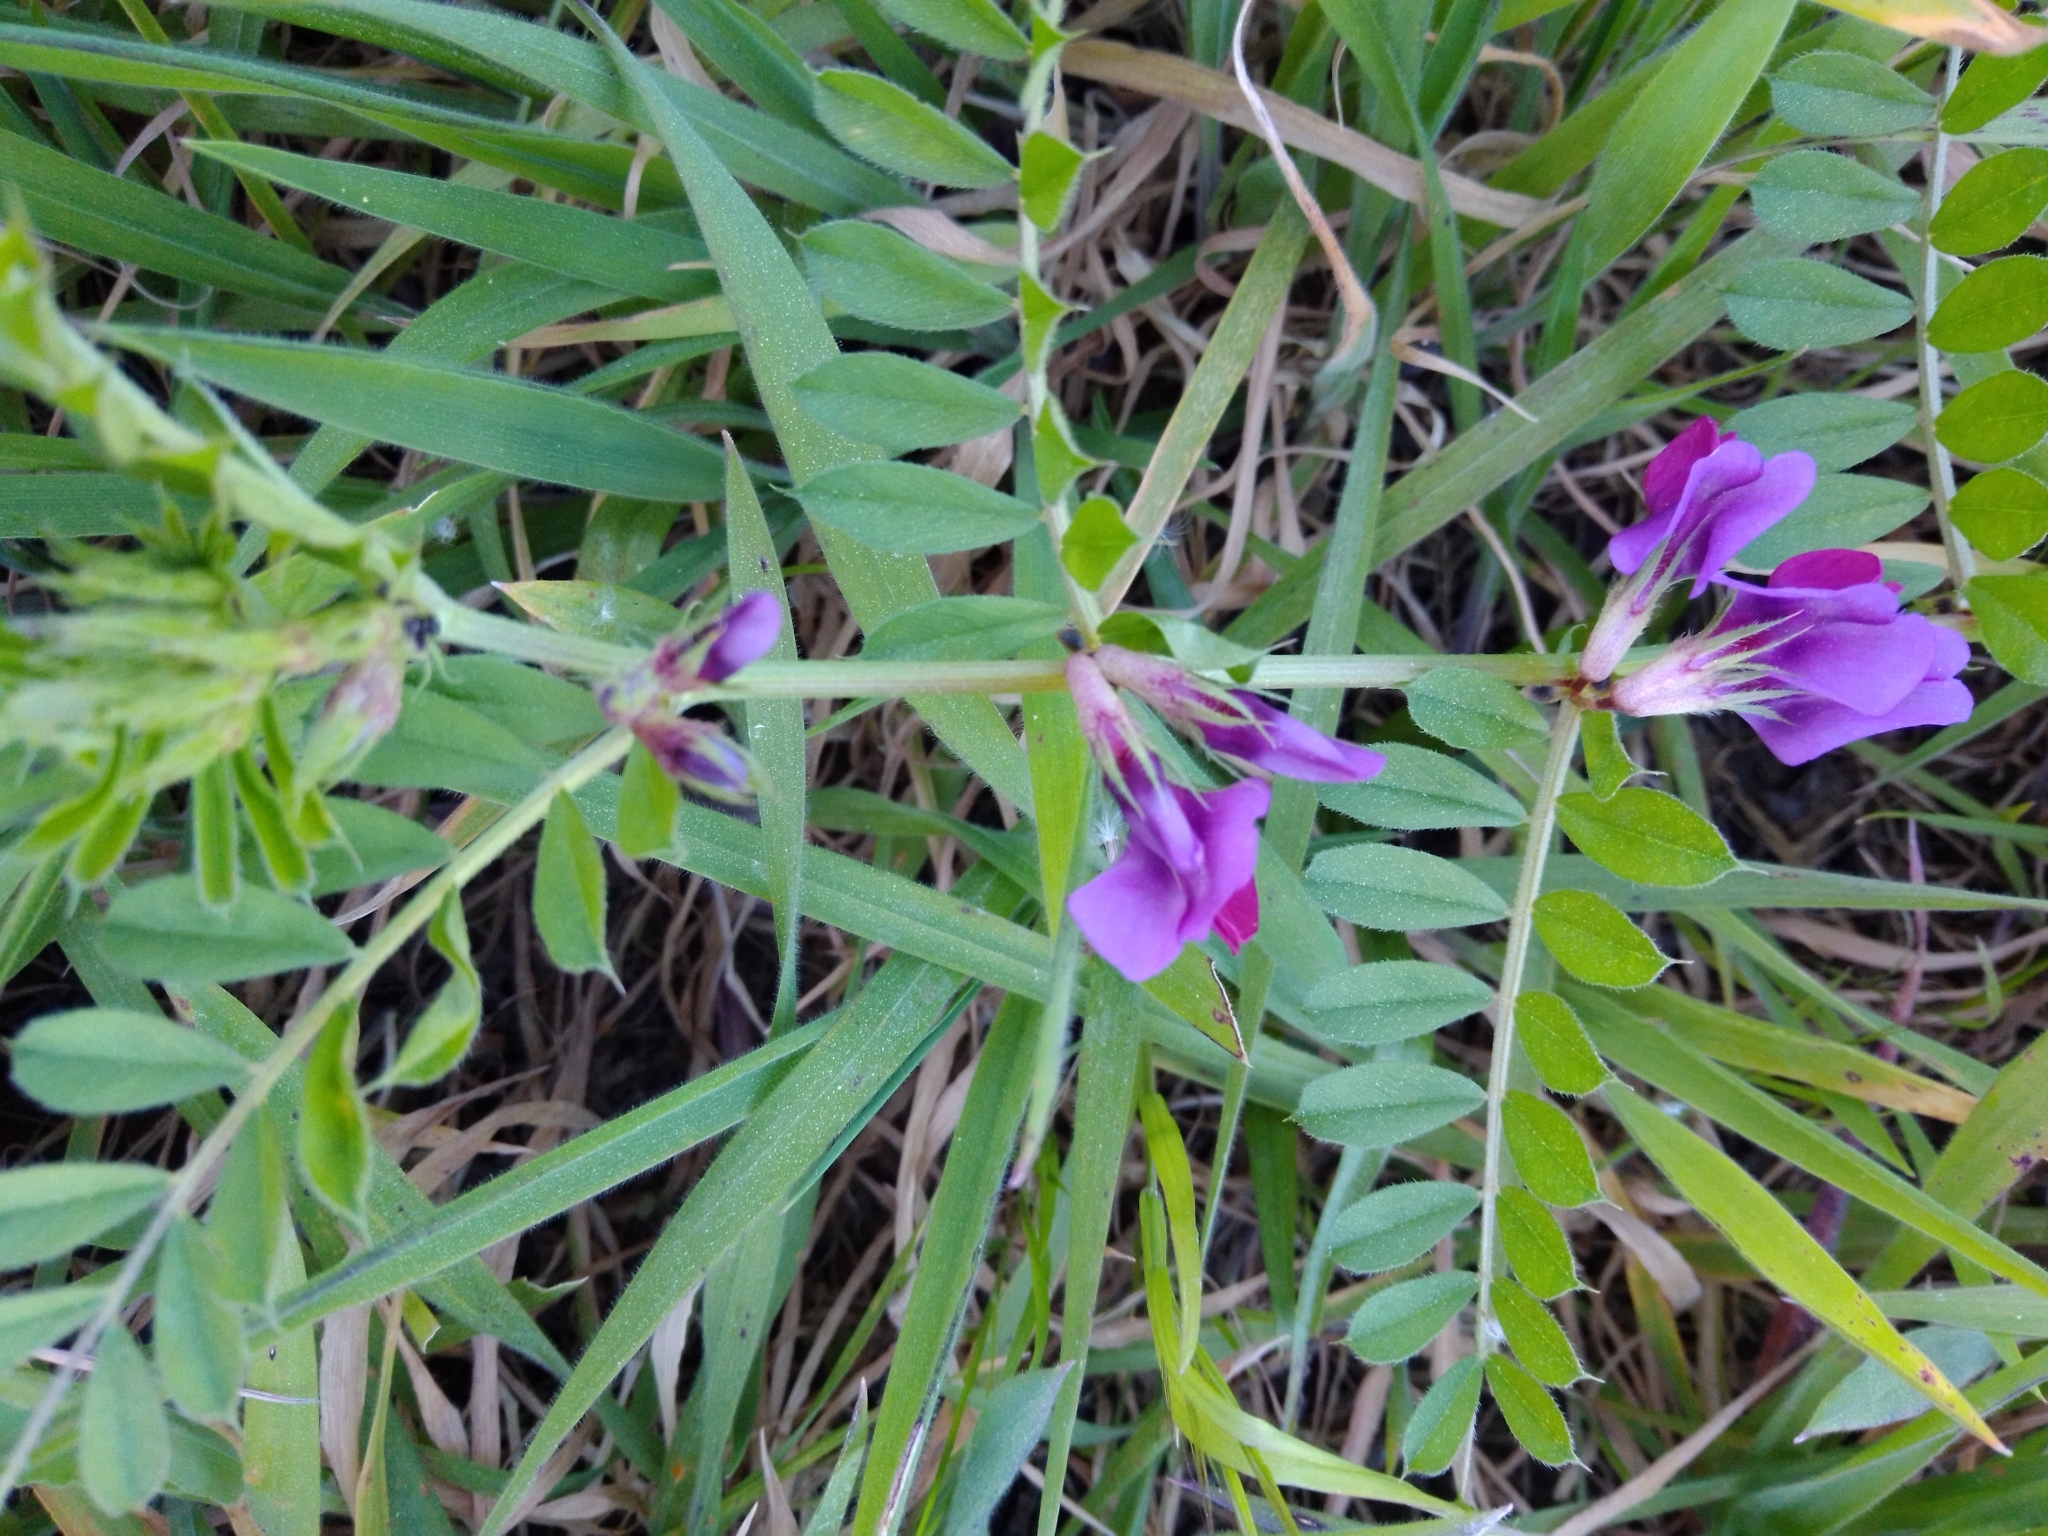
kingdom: Plantae
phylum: Tracheophyta
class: Magnoliopsida
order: Fabales
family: Fabaceae
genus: Vicia
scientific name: Vicia sativa
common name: Garden vetch
